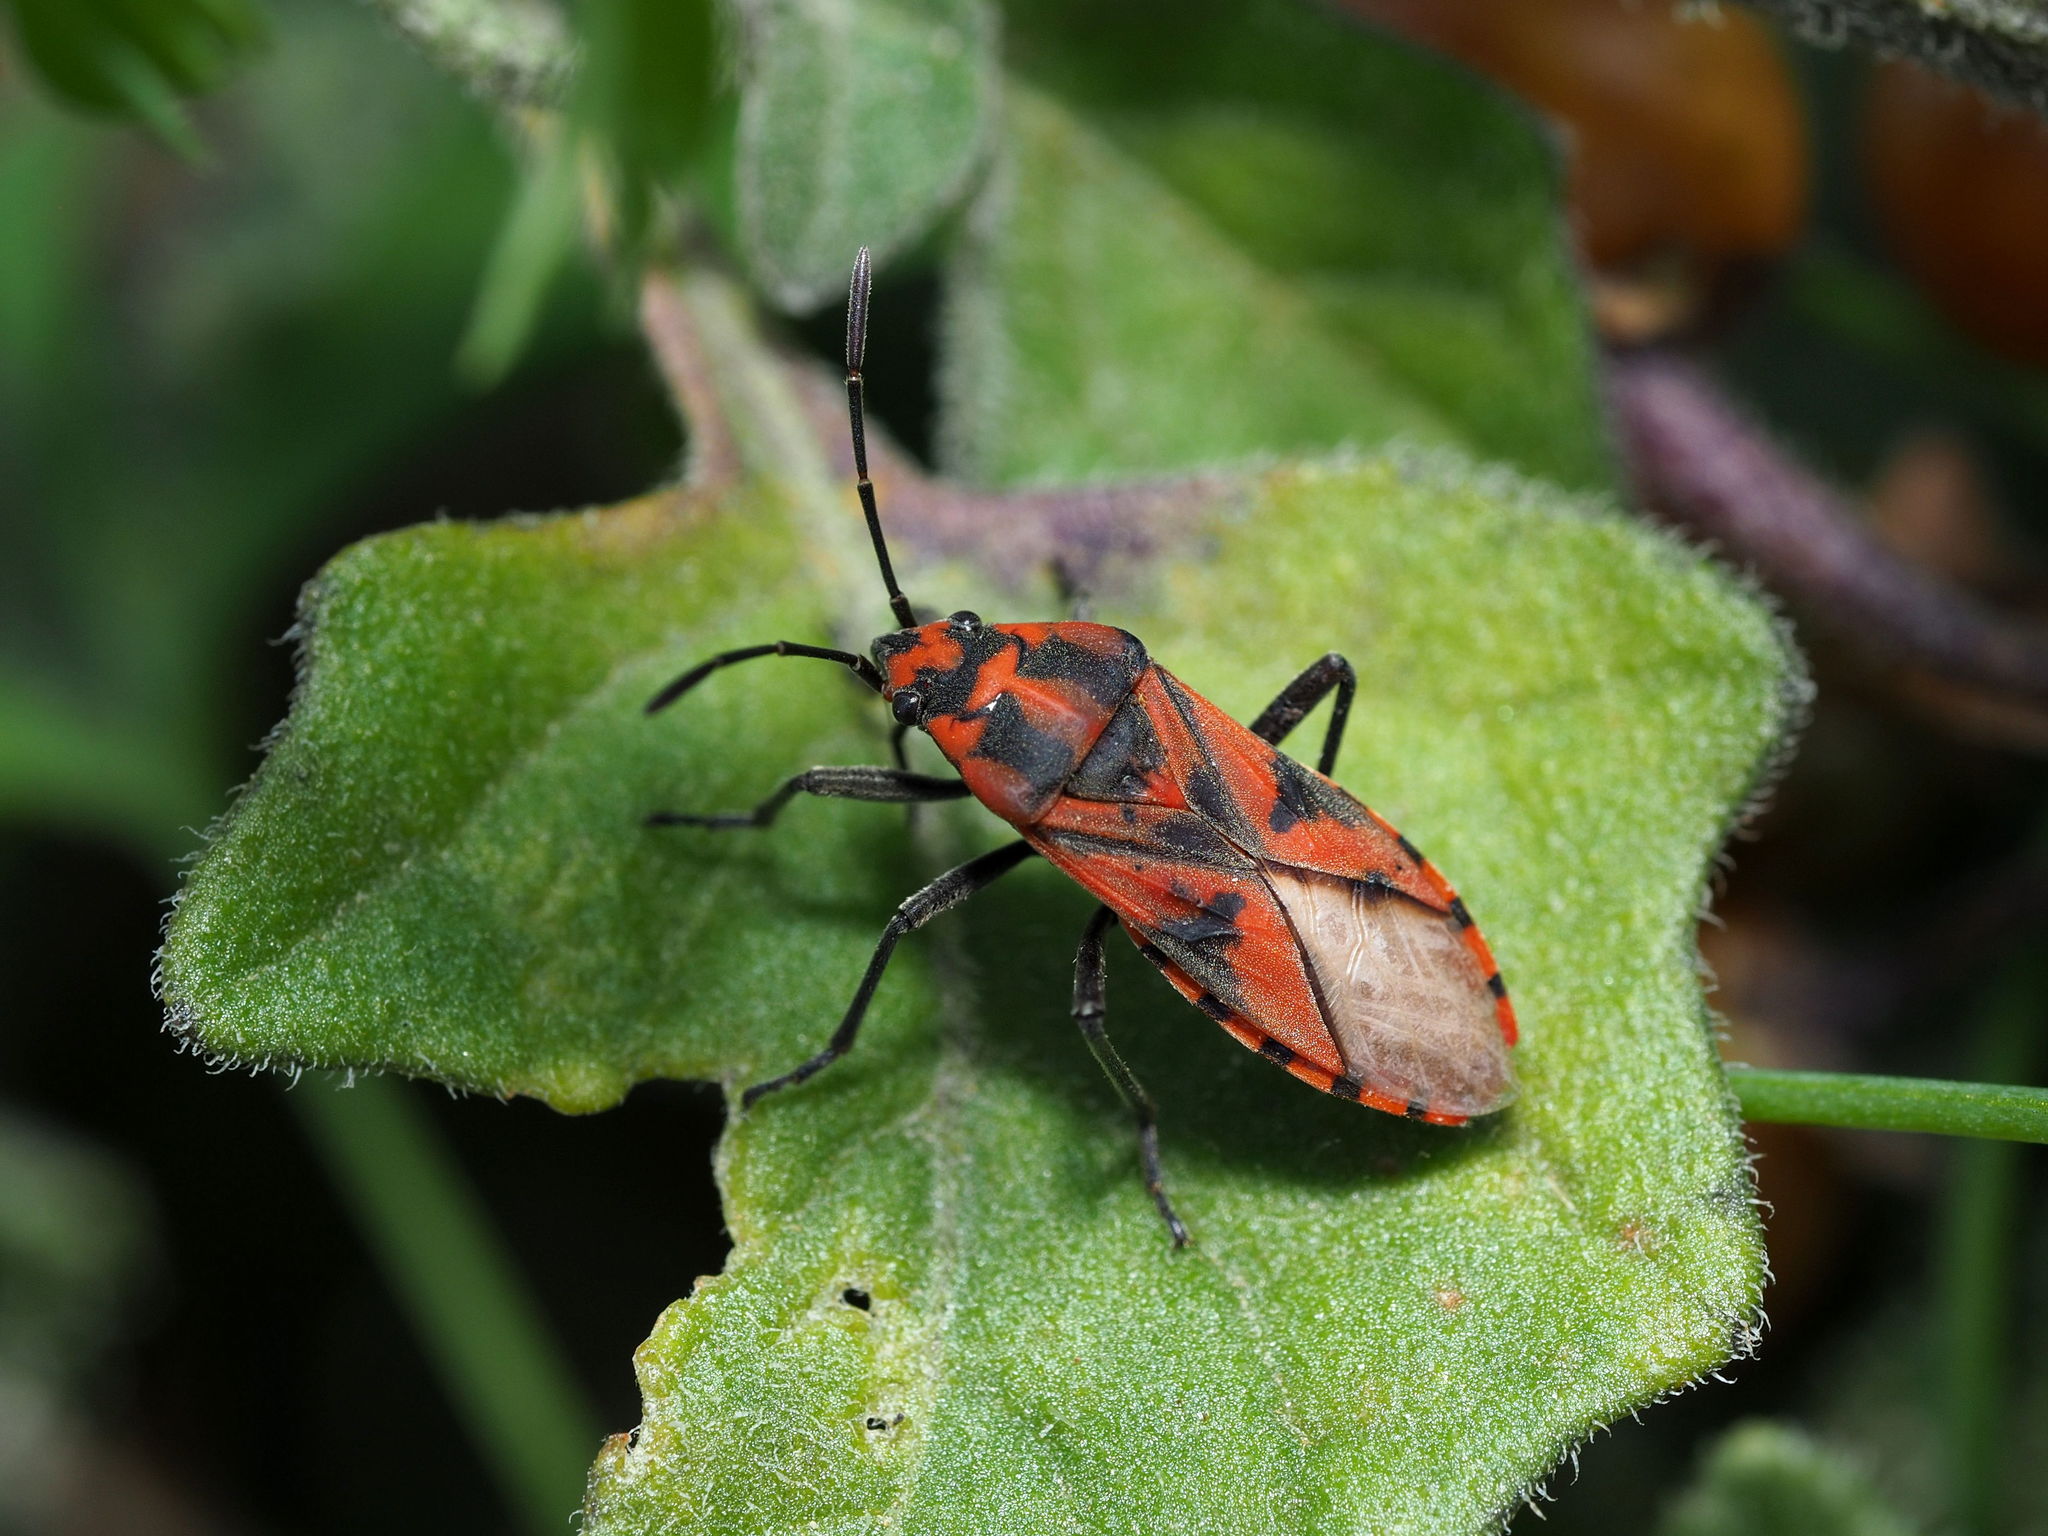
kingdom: Animalia
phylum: Arthropoda
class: Insecta
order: Hemiptera
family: Lygaeidae
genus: Spilostethus
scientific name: Spilostethus furcula
